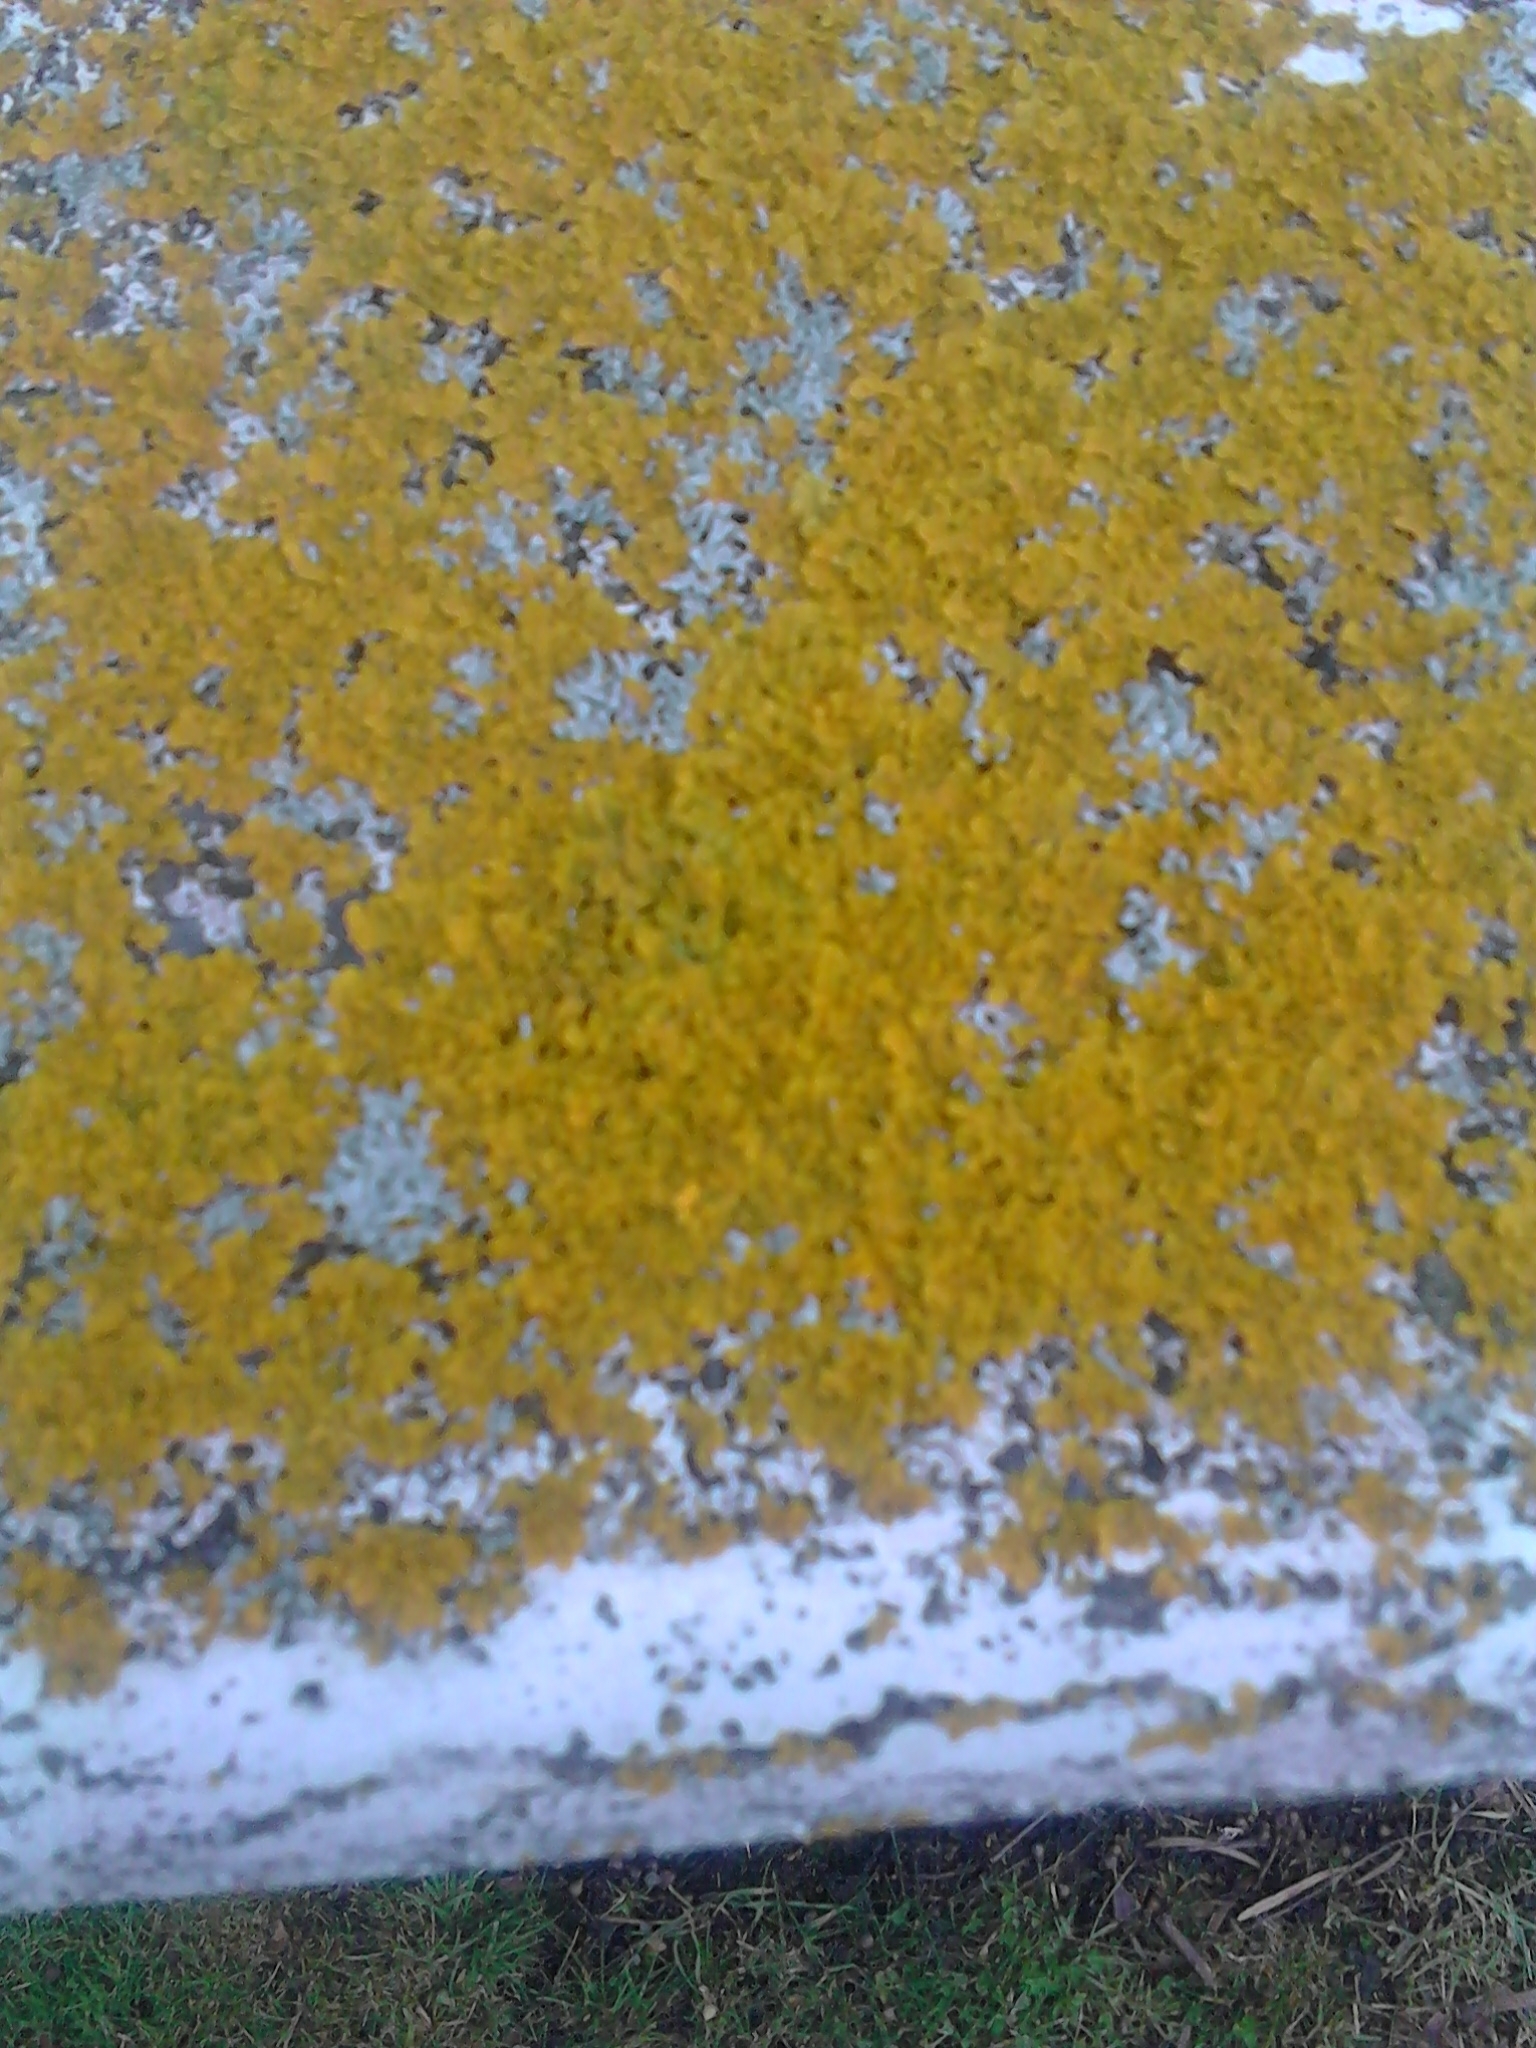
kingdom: Fungi
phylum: Ascomycota
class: Lecanoromycetes
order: Teloschistales
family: Teloschistaceae
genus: Xanthoria
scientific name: Xanthoria parietina
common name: Common orange lichen
